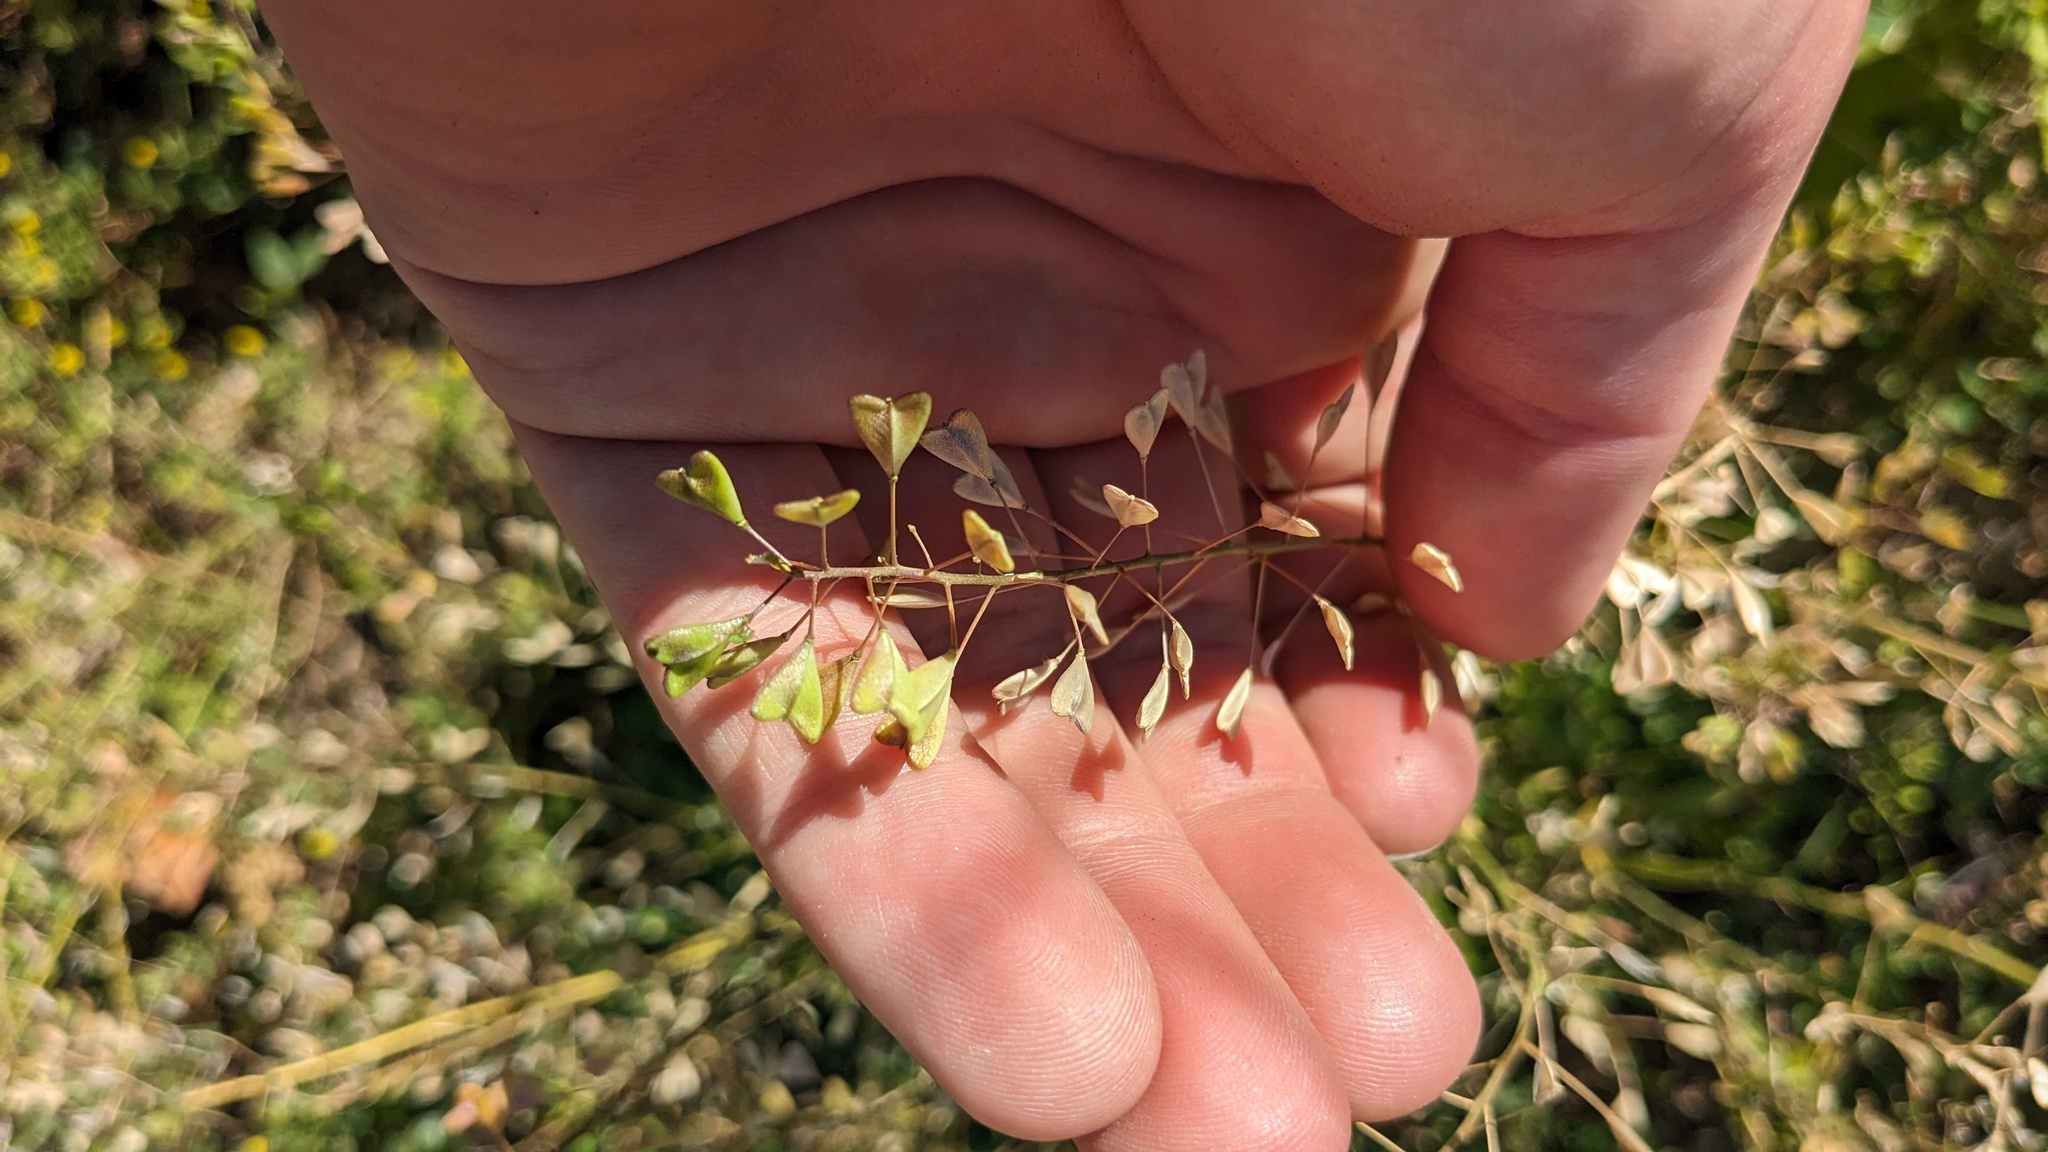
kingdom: Plantae
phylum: Tracheophyta
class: Magnoliopsida
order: Brassicales
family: Brassicaceae
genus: Capsella
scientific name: Capsella bursa-pastoris
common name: Shepherd's purse
